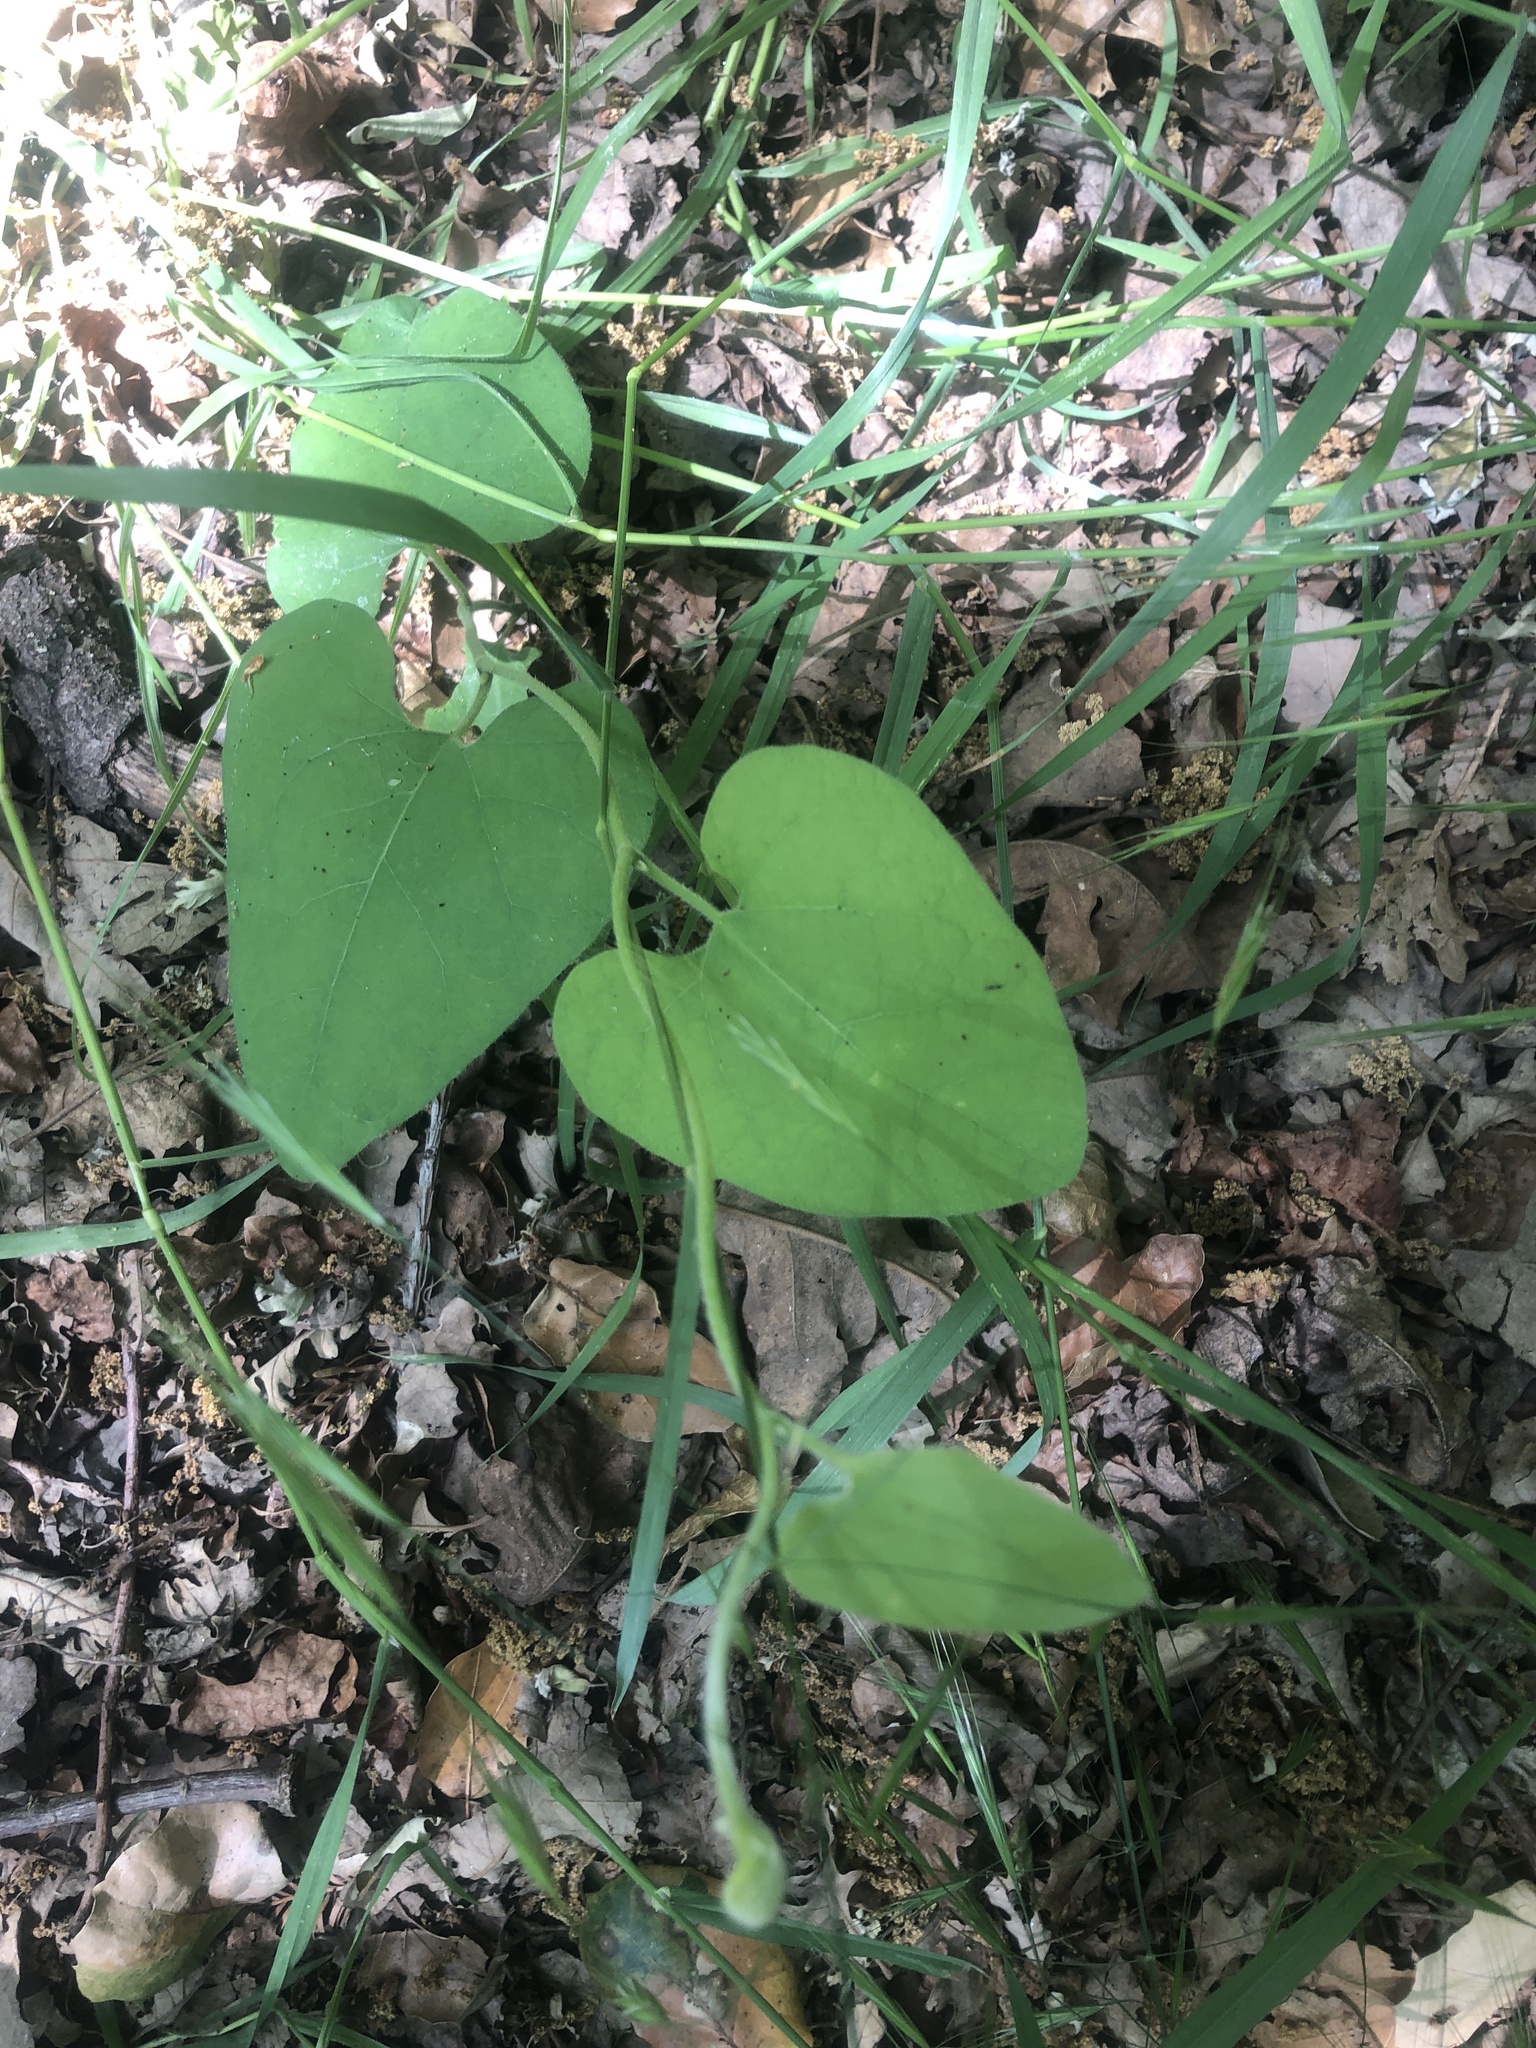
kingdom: Plantae
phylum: Tracheophyta
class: Magnoliopsida
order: Piperales
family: Aristolochiaceae
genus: Isotrema
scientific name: Isotrema californicum
